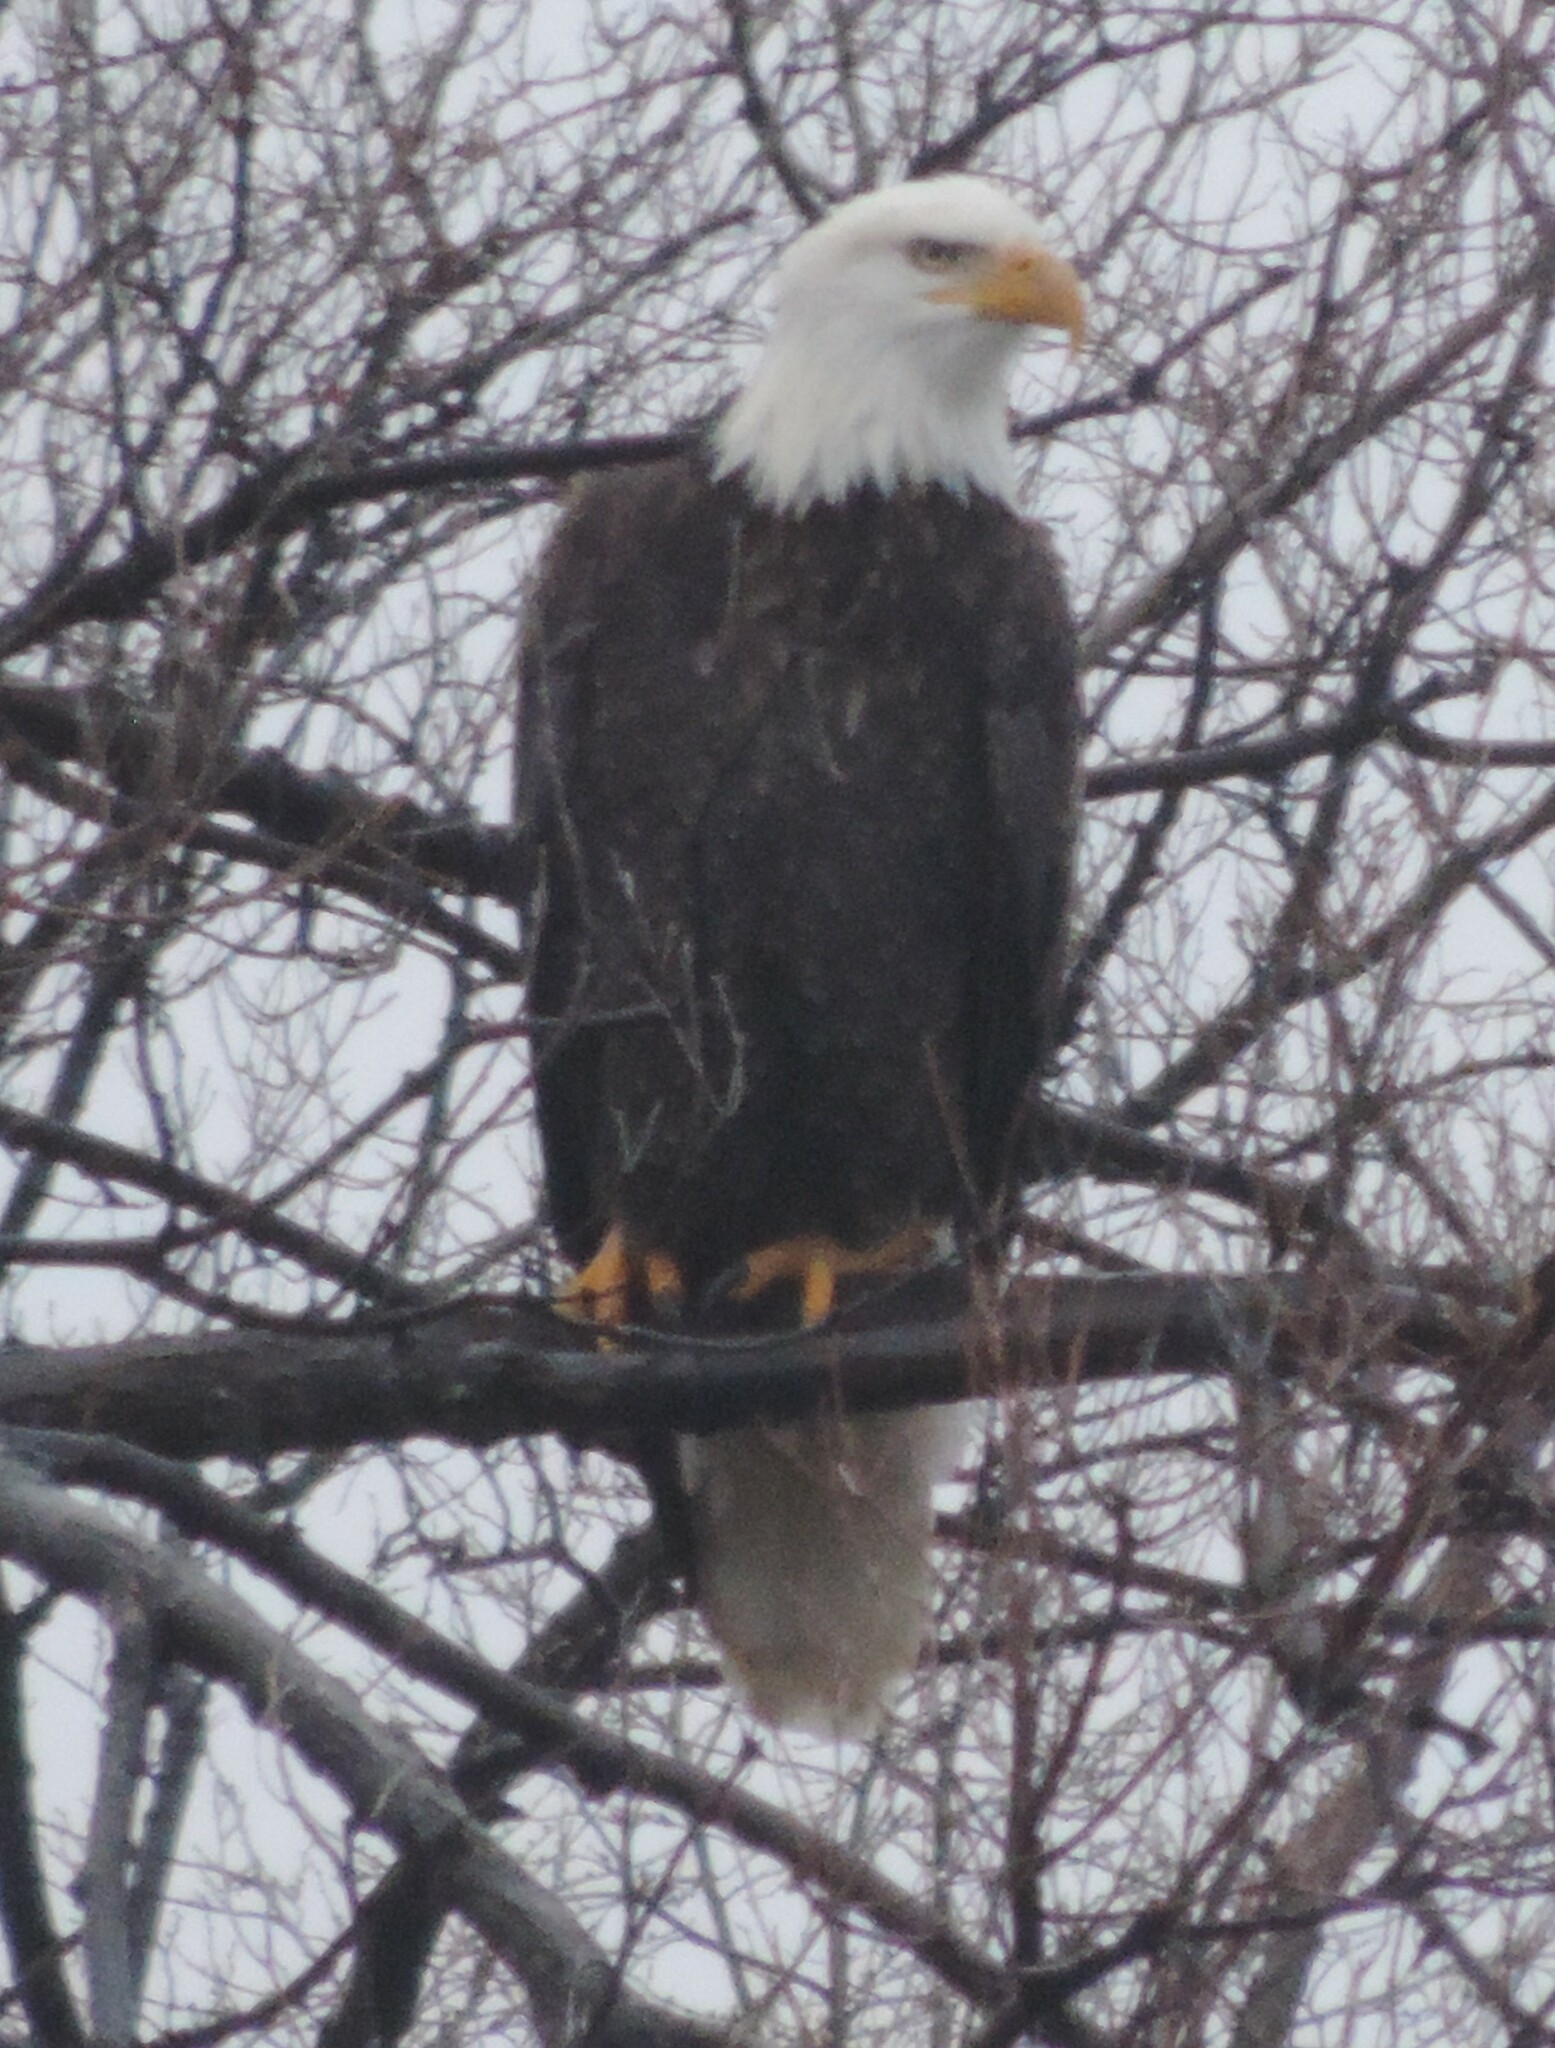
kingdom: Animalia
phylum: Chordata
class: Aves
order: Accipitriformes
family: Accipitridae
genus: Haliaeetus
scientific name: Haliaeetus leucocephalus
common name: Bald eagle
